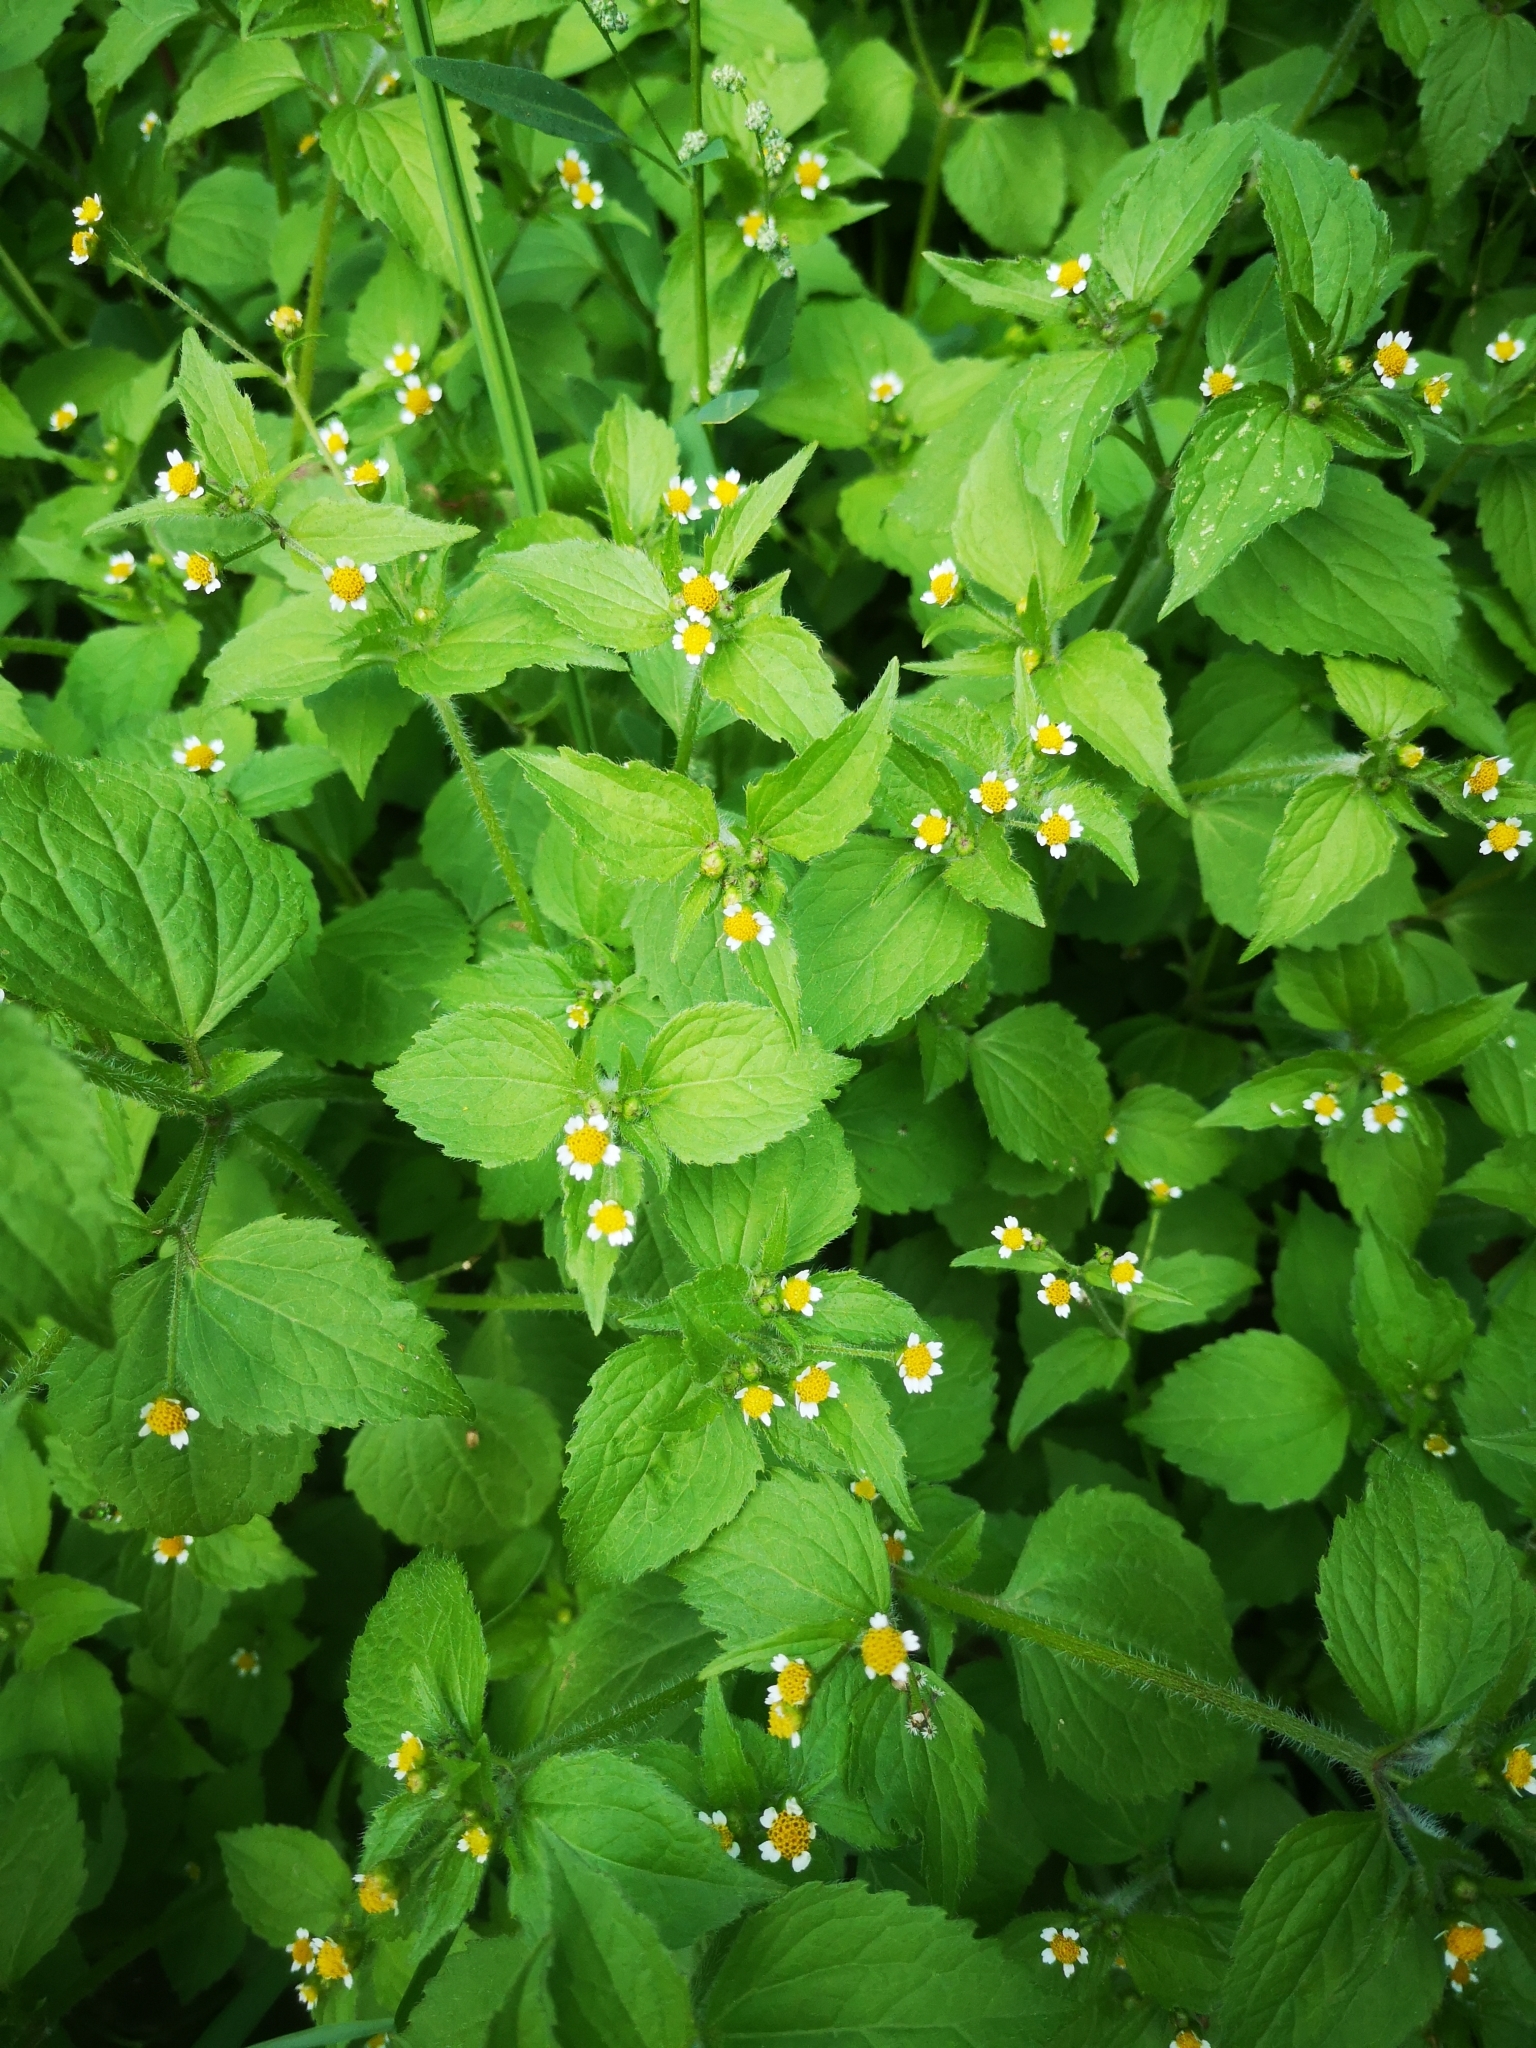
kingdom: Plantae
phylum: Tracheophyta
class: Magnoliopsida
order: Asterales
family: Asteraceae
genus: Galinsoga
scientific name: Galinsoga quadriradiata
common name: Shaggy soldier
